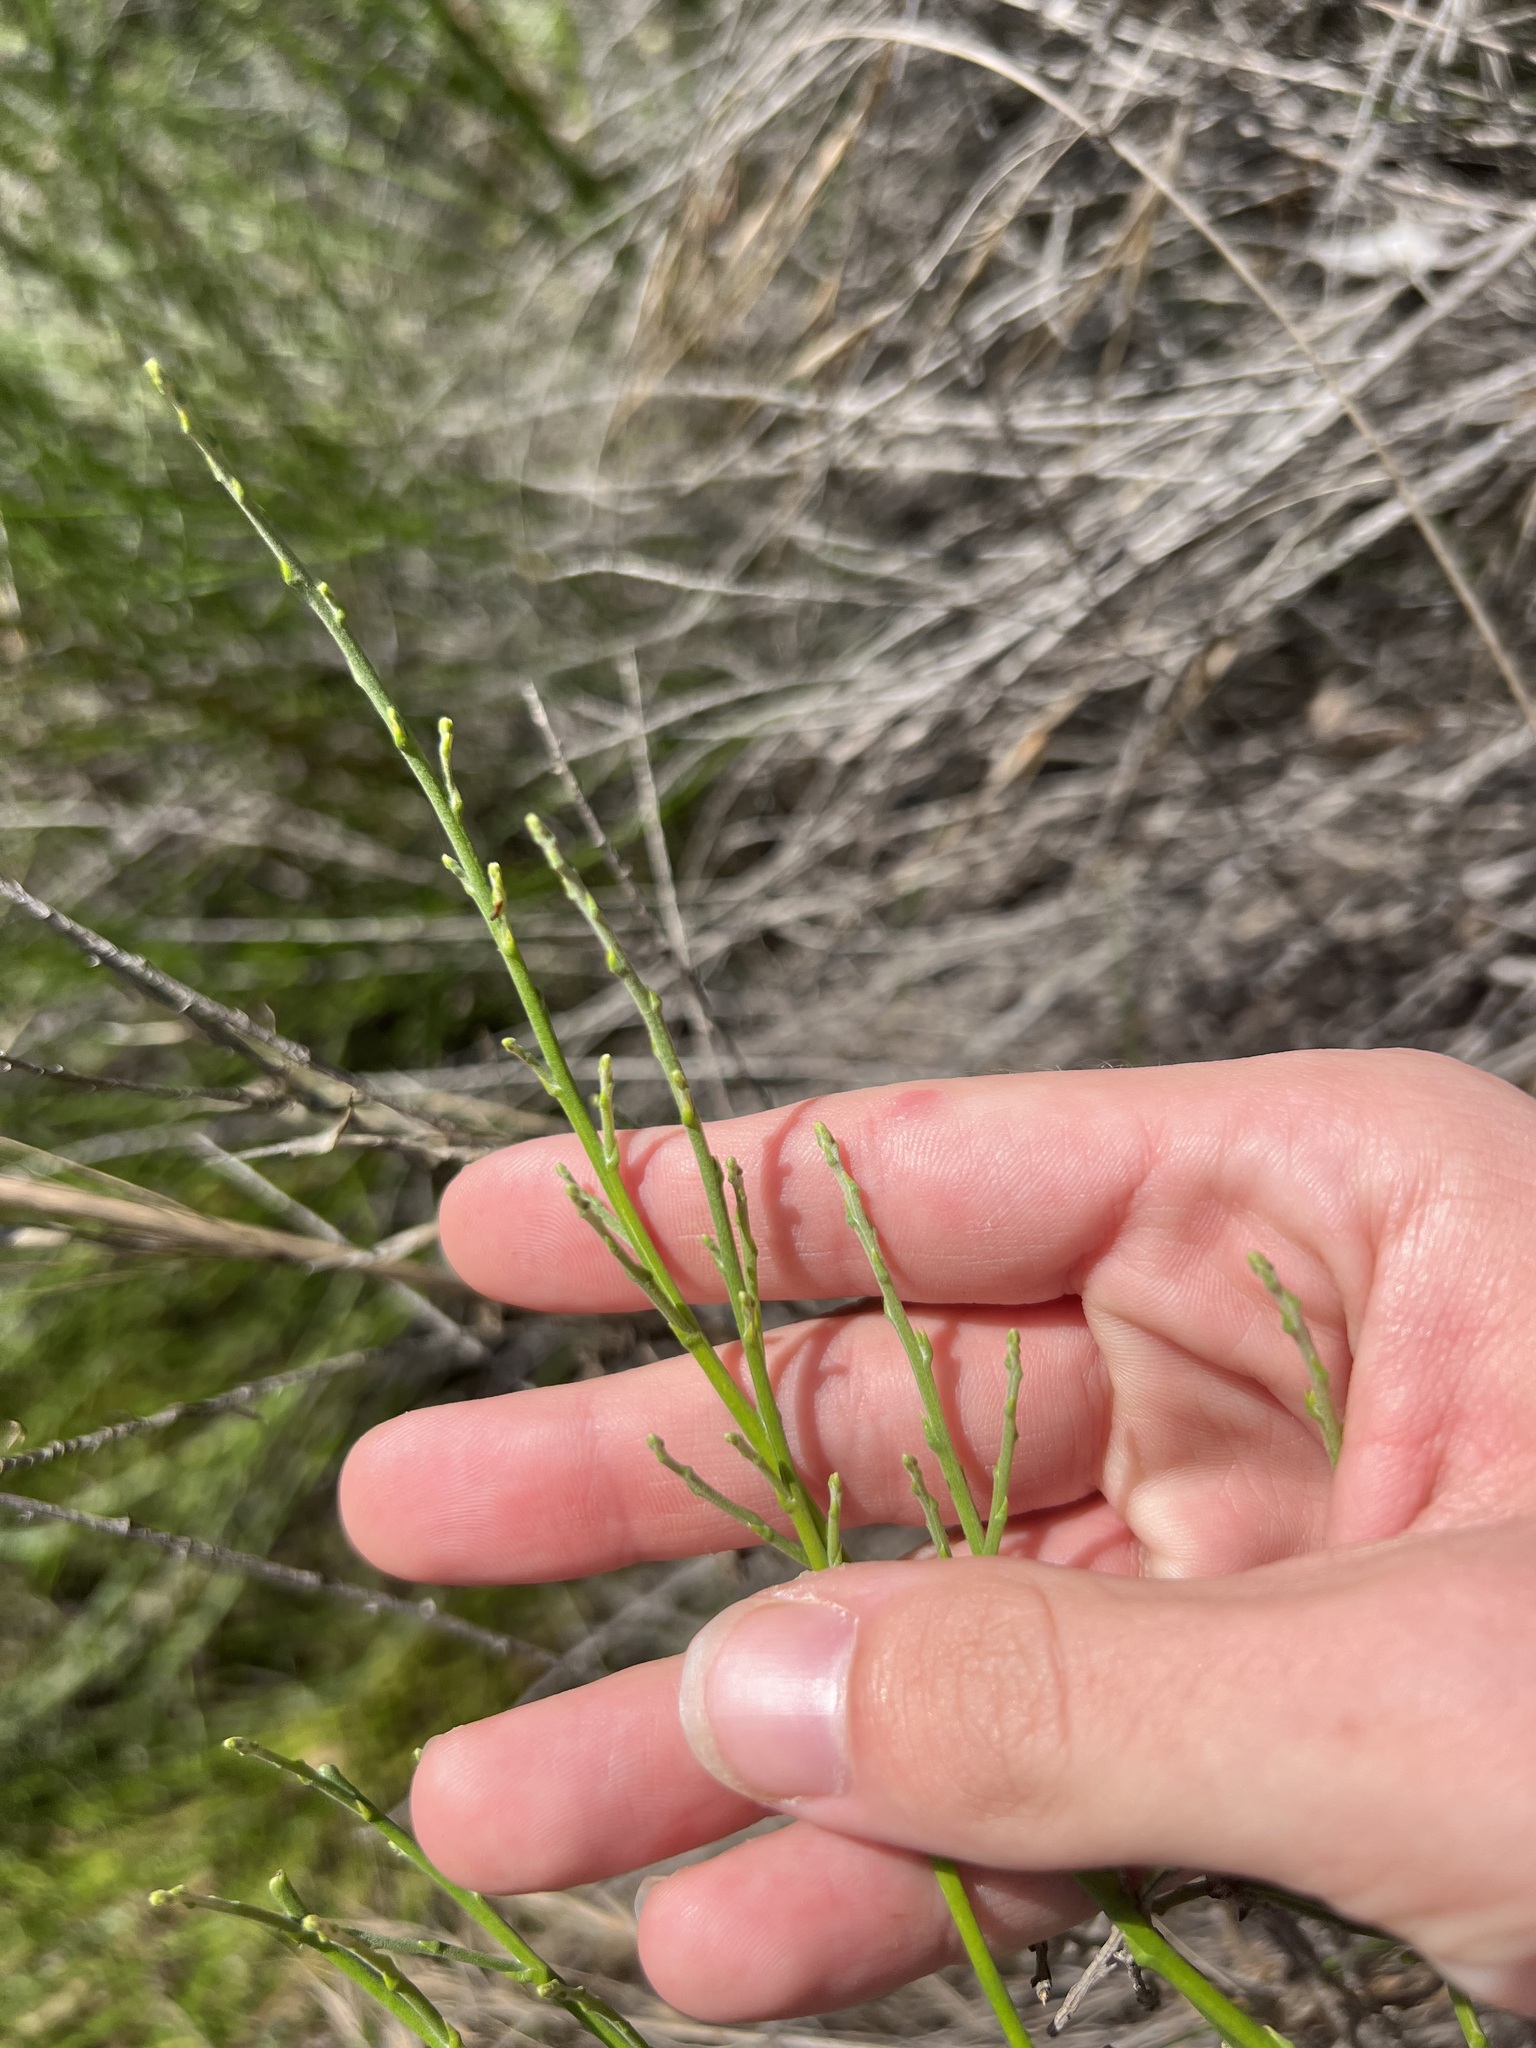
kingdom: Plantae
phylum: Tracheophyta
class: Magnoliopsida
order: Asterales
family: Asteraceae
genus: Lepidospartum
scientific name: Lepidospartum squamatum
